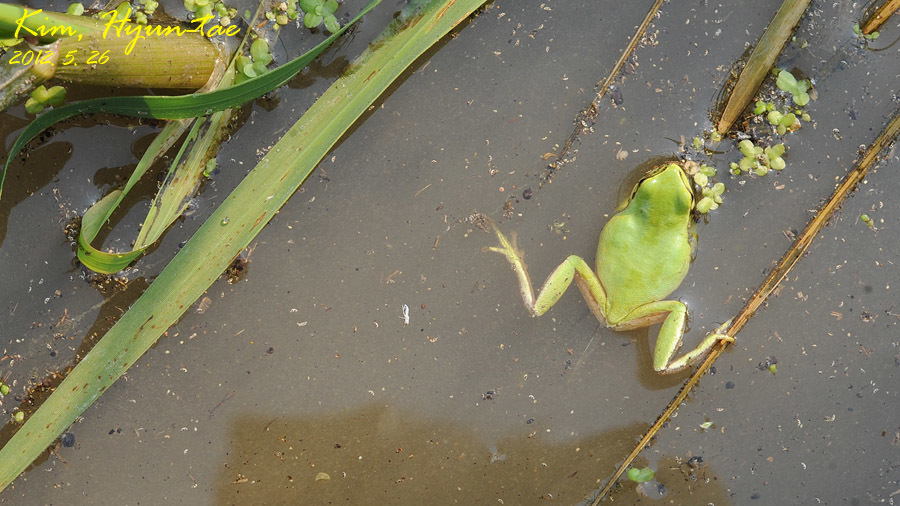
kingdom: Animalia
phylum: Chordata
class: Amphibia
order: Anura
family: Hylidae
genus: Dryophytes
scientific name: Dryophytes immaculatus
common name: North china treefrog
